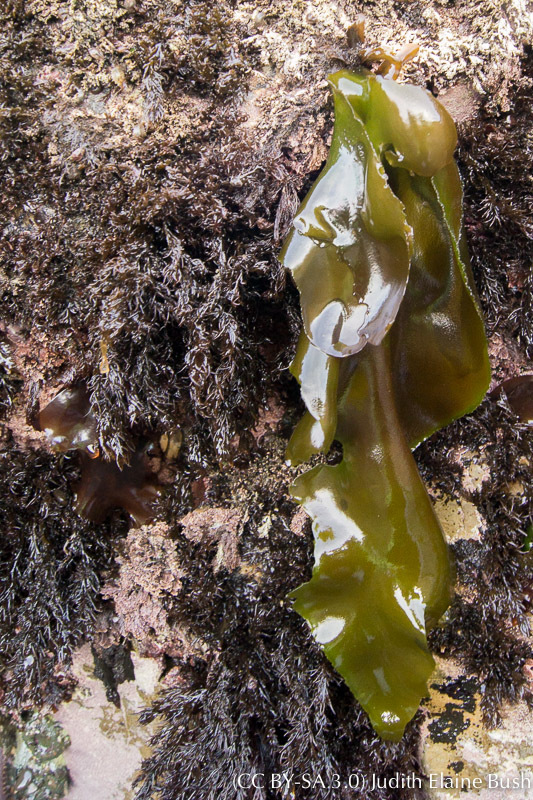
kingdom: Plantae
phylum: Rhodophyta
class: Florideophyceae
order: Gigartinales
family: Gigartinaceae
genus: Mazzaella
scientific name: Mazzaella splendens
